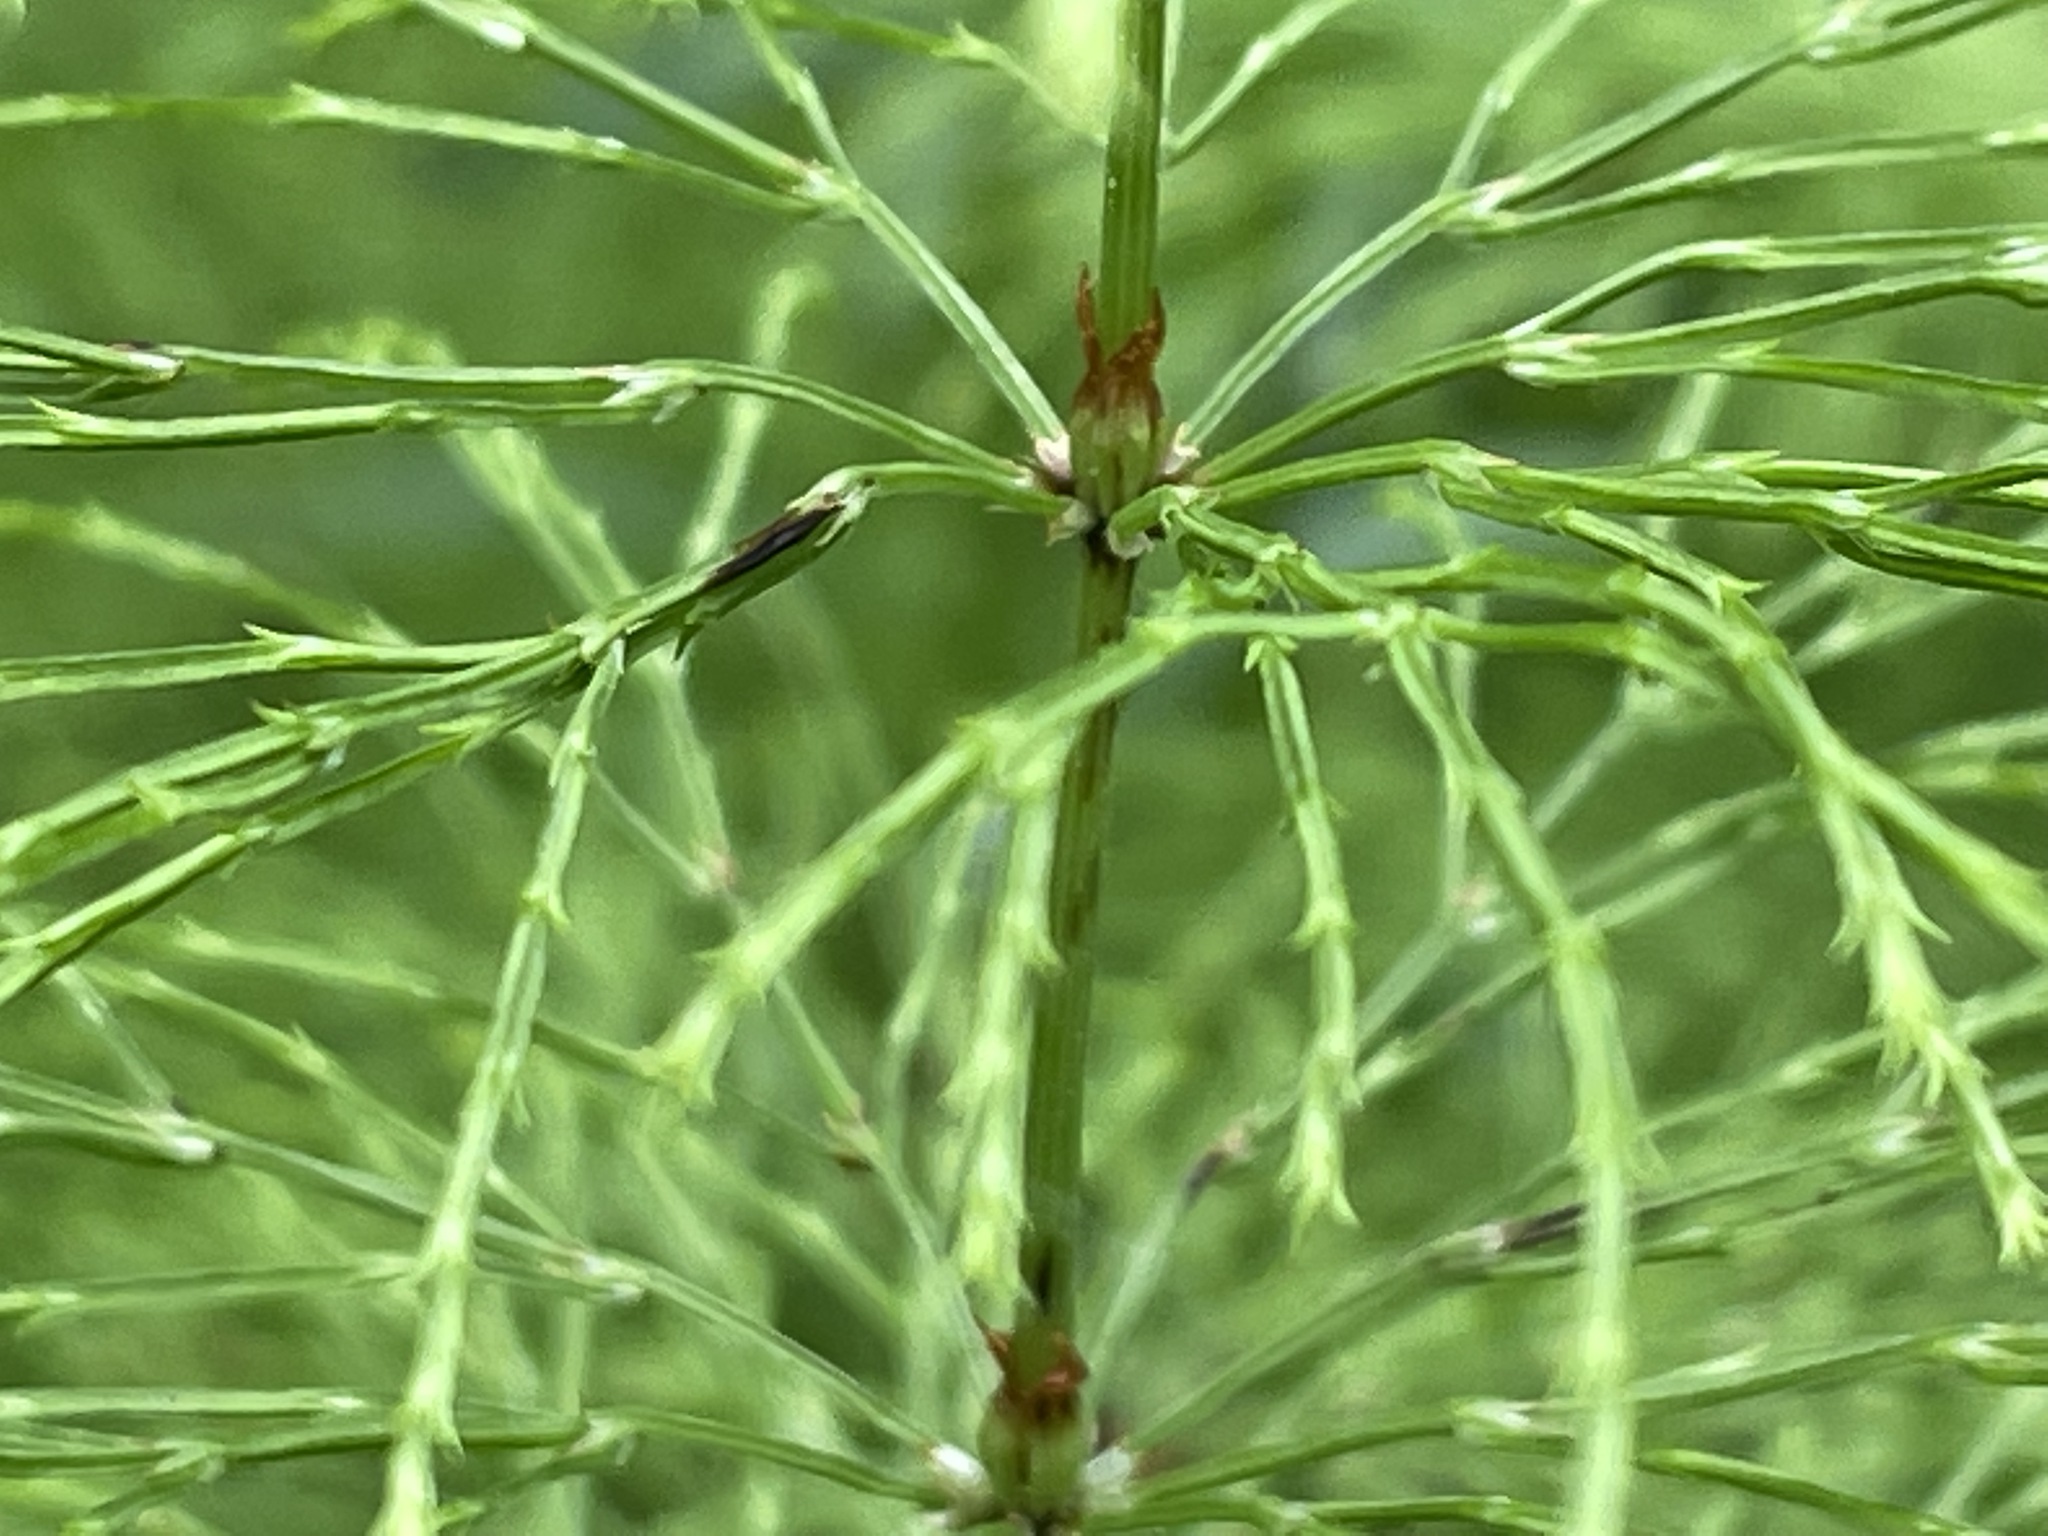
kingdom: Plantae
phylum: Tracheophyta
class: Polypodiopsida
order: Equisetales
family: Equisetaceae
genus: Equisetum
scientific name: Equisetum sylvaticum
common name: Wood horsetail
